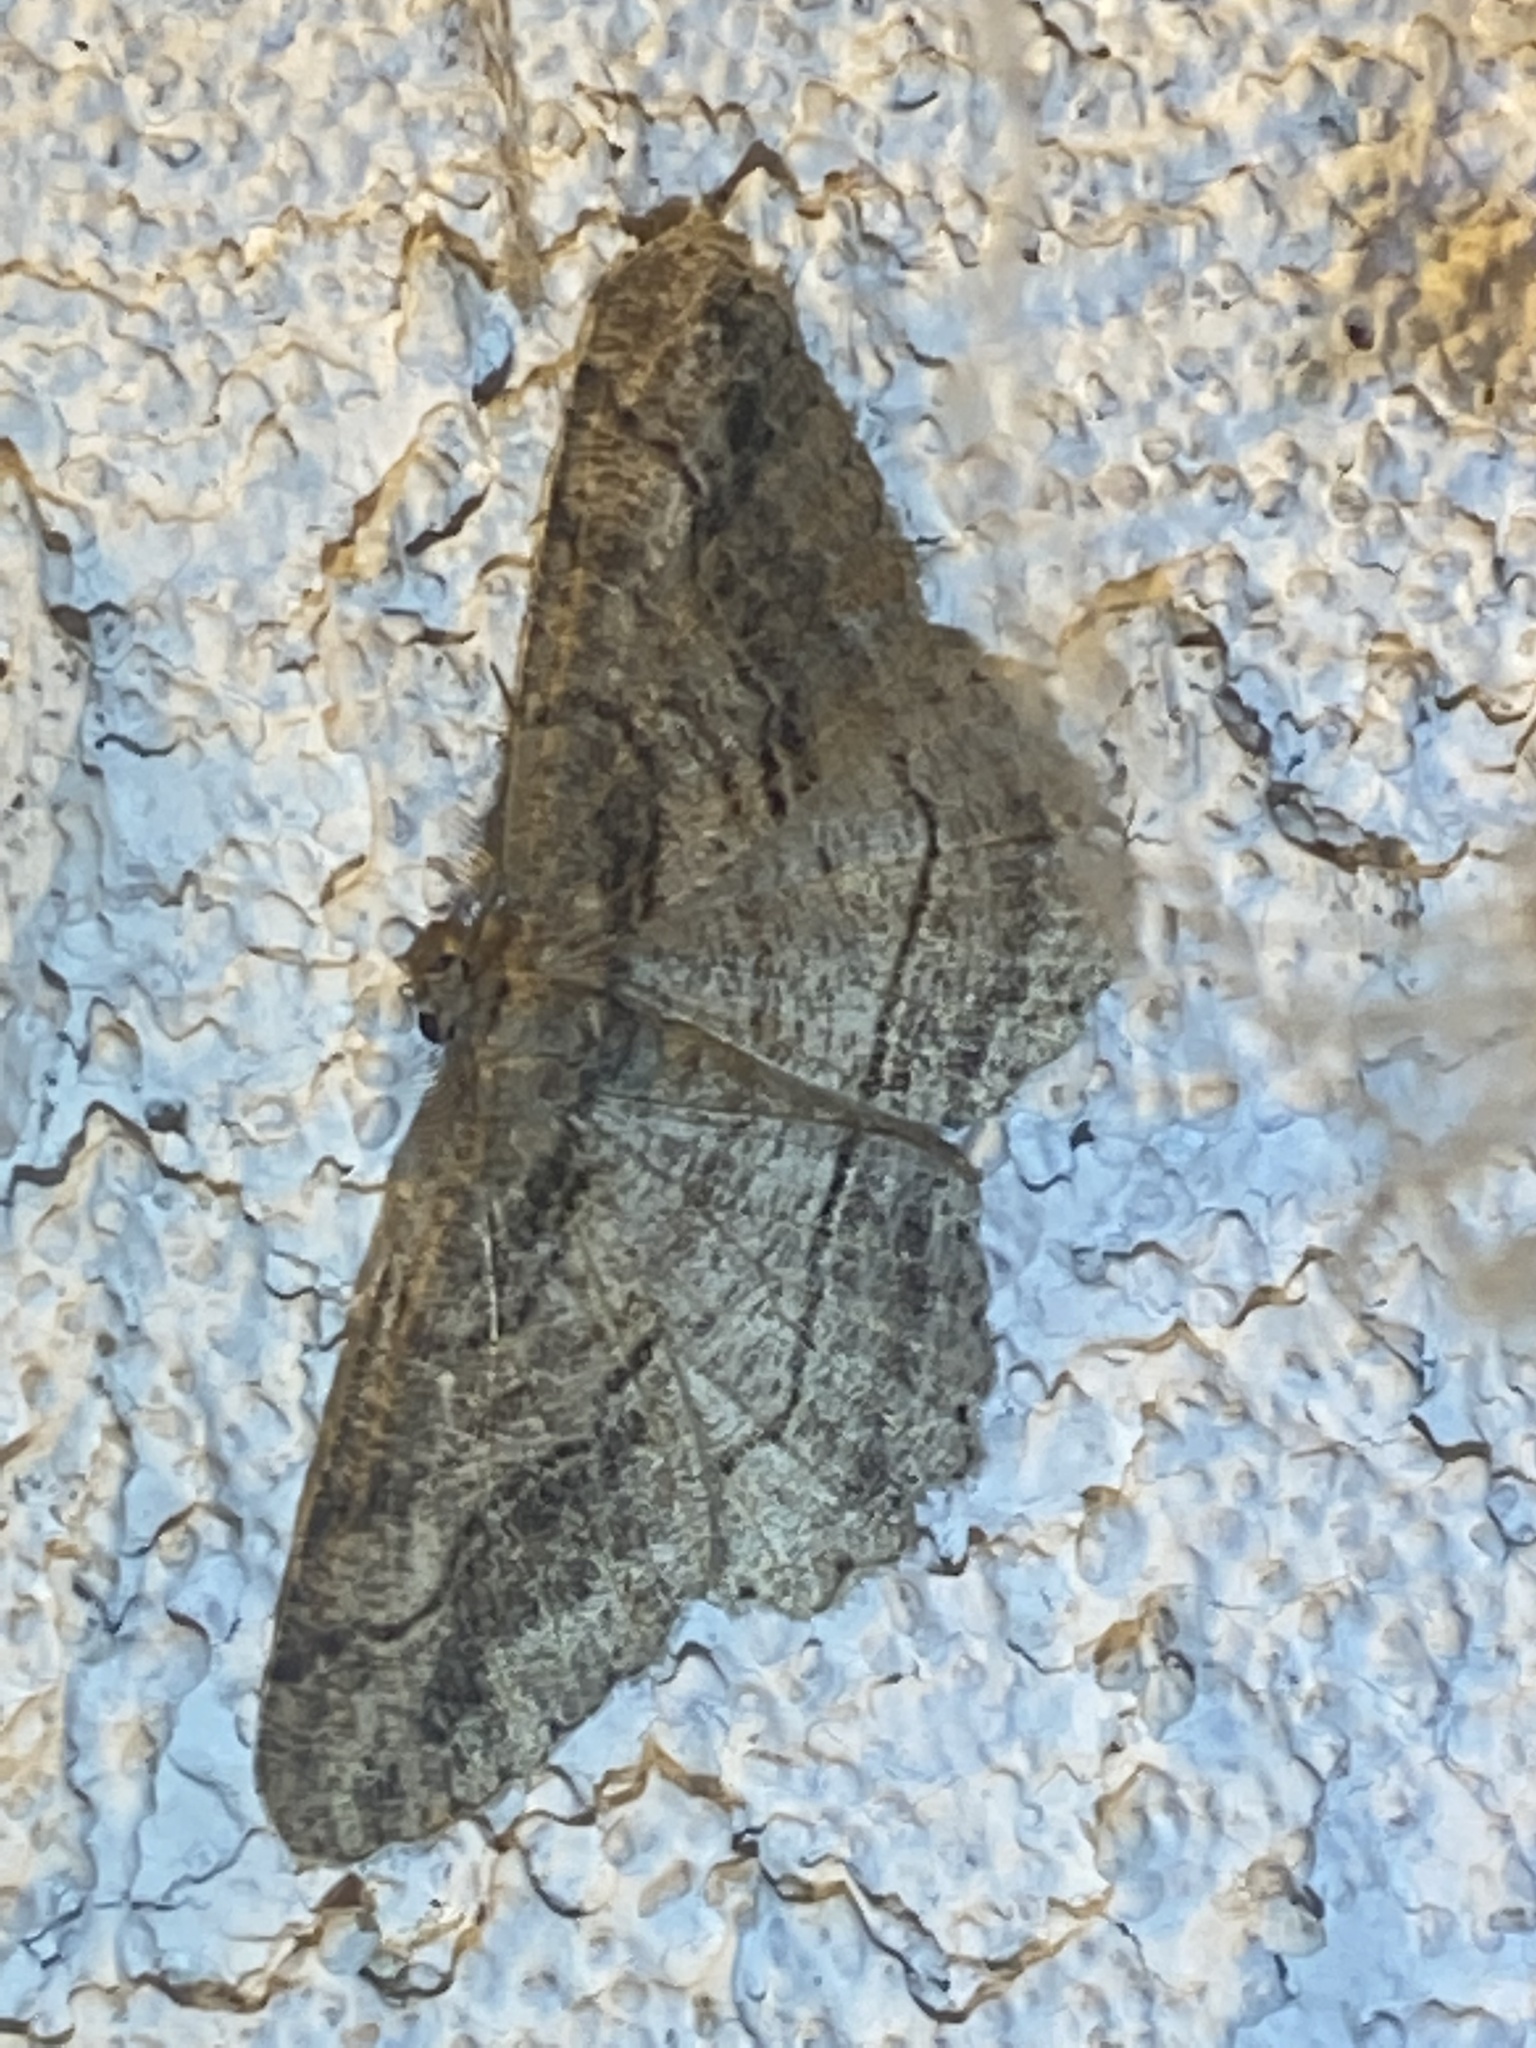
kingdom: Animalia
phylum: Arthropoda
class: Insecta
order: Lepidoptera
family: Geometridae
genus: Neoalcis
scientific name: Neoalcis californiaria
